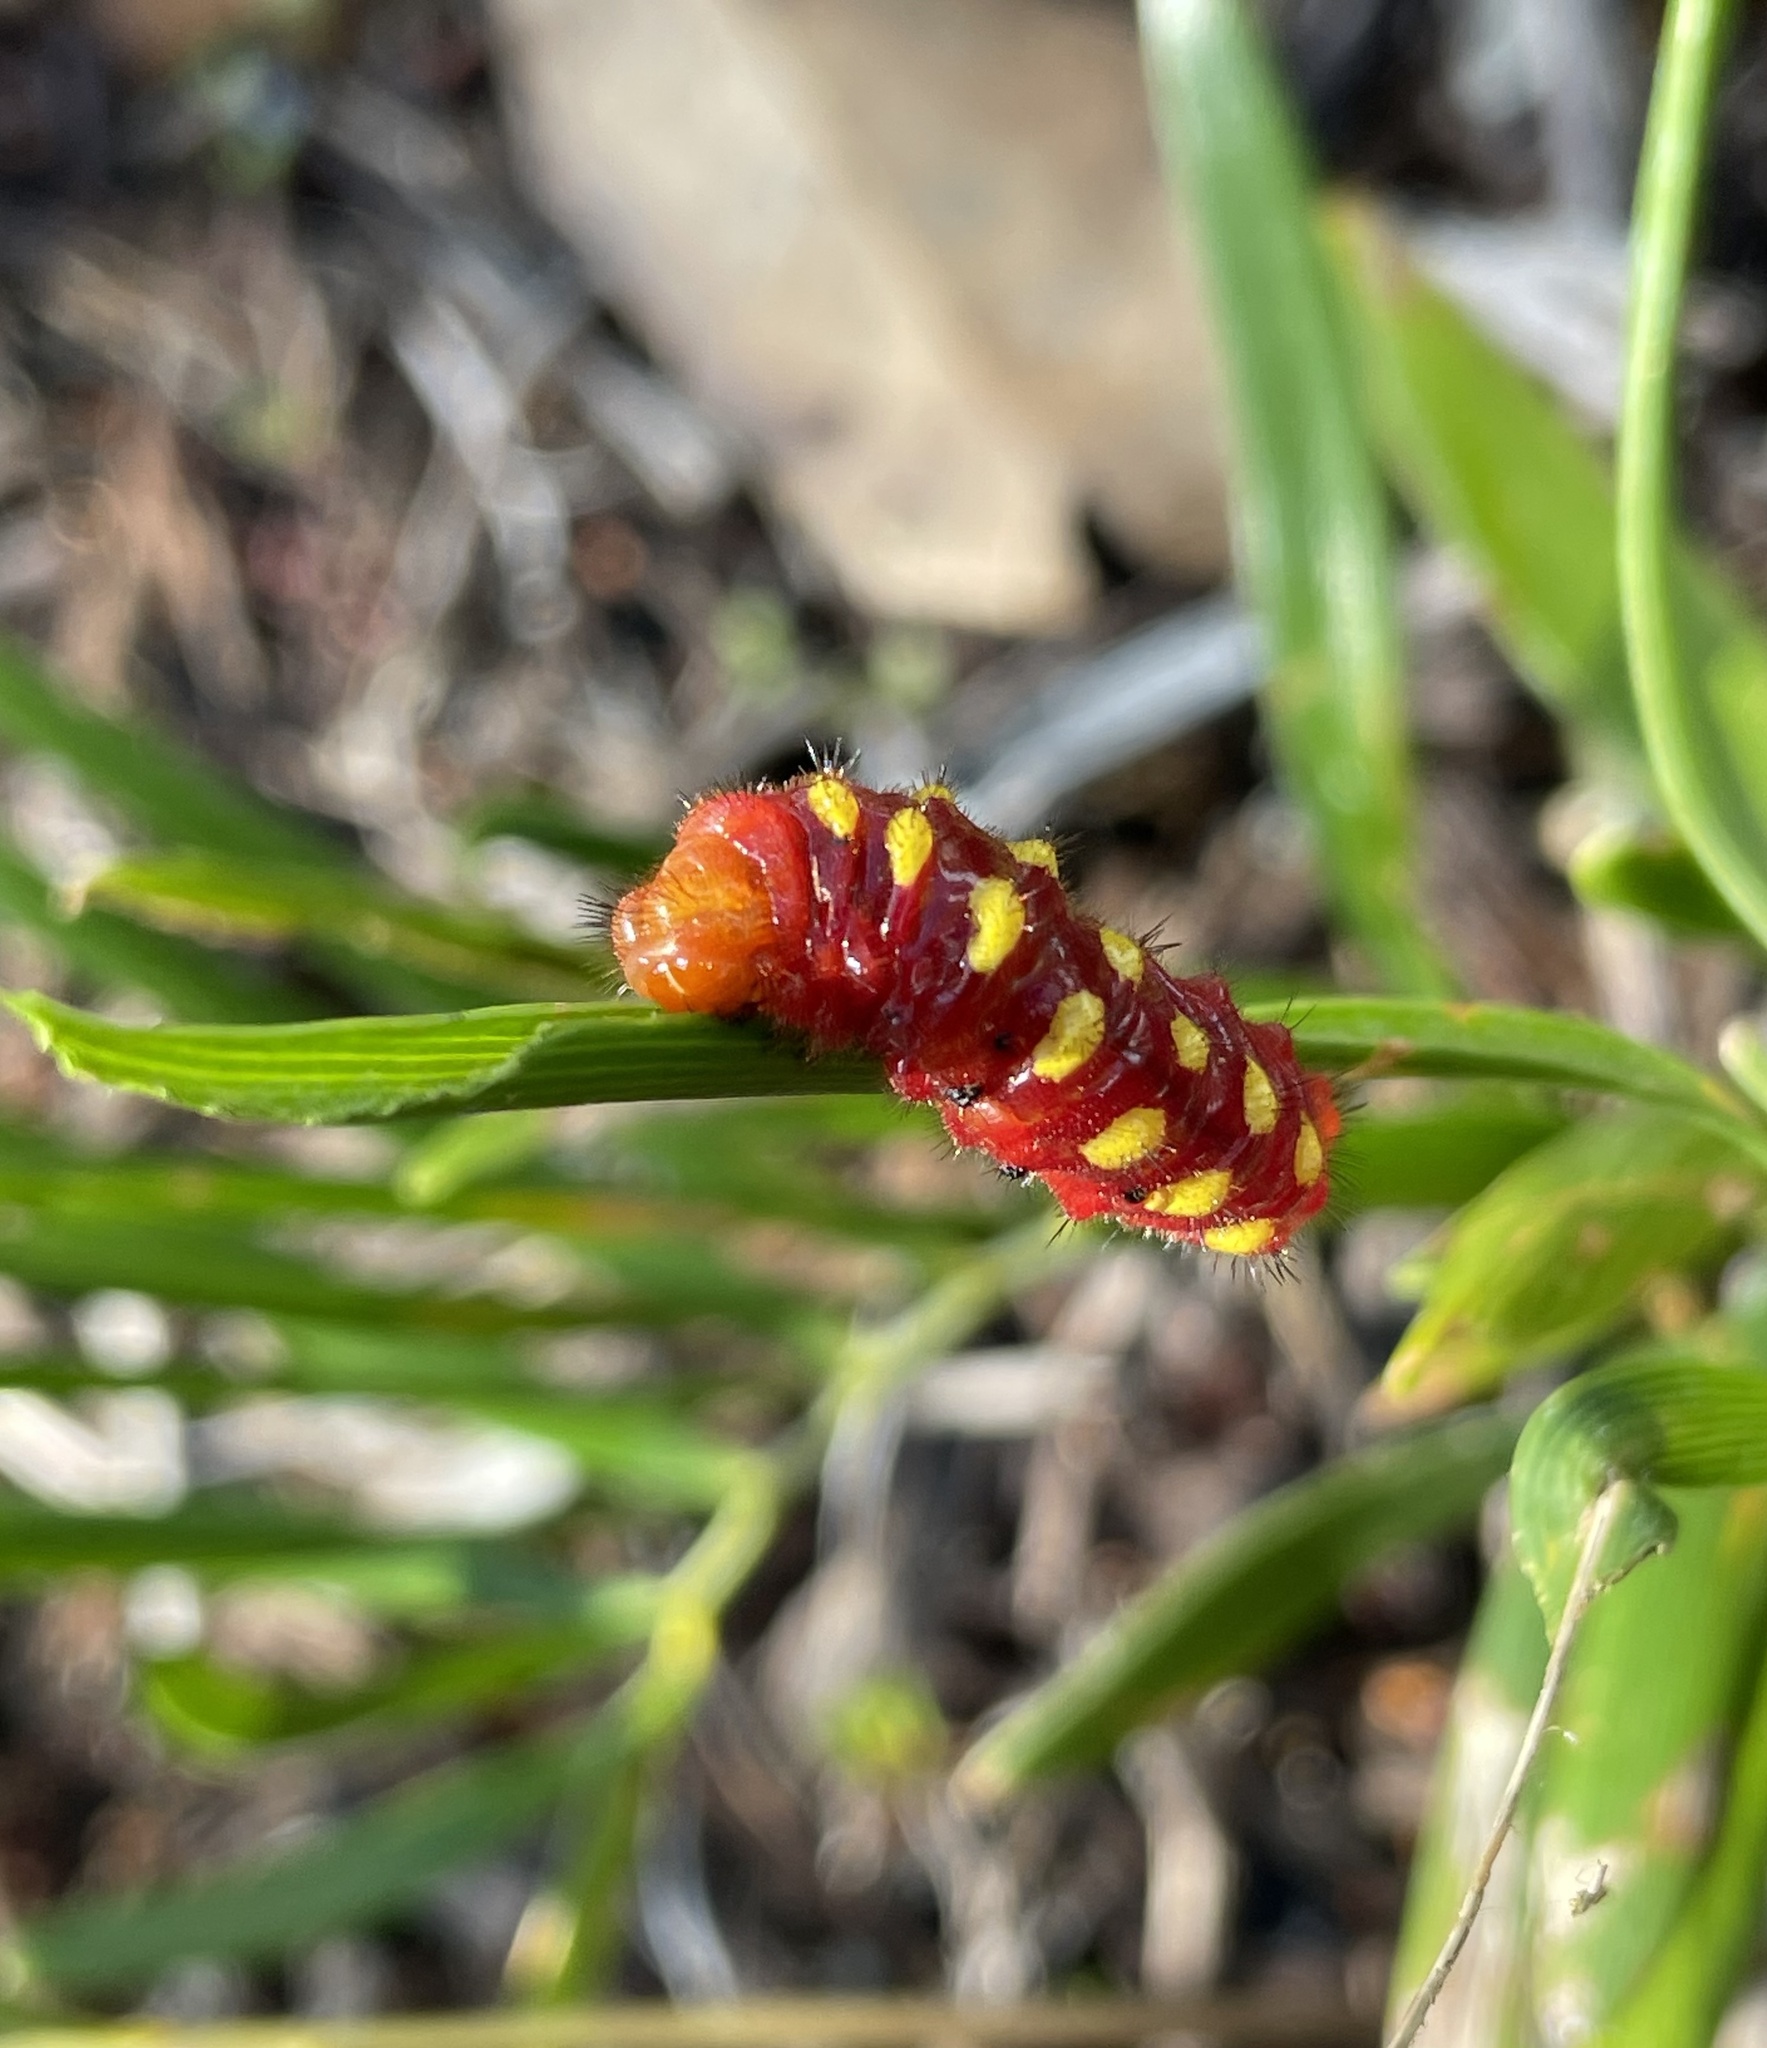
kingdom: Animalia
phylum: Arthropoda
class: Insecta
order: Lepidoptera
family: Lycaenidae
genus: Eumaeus
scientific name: Eumaeus atala
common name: Atala
